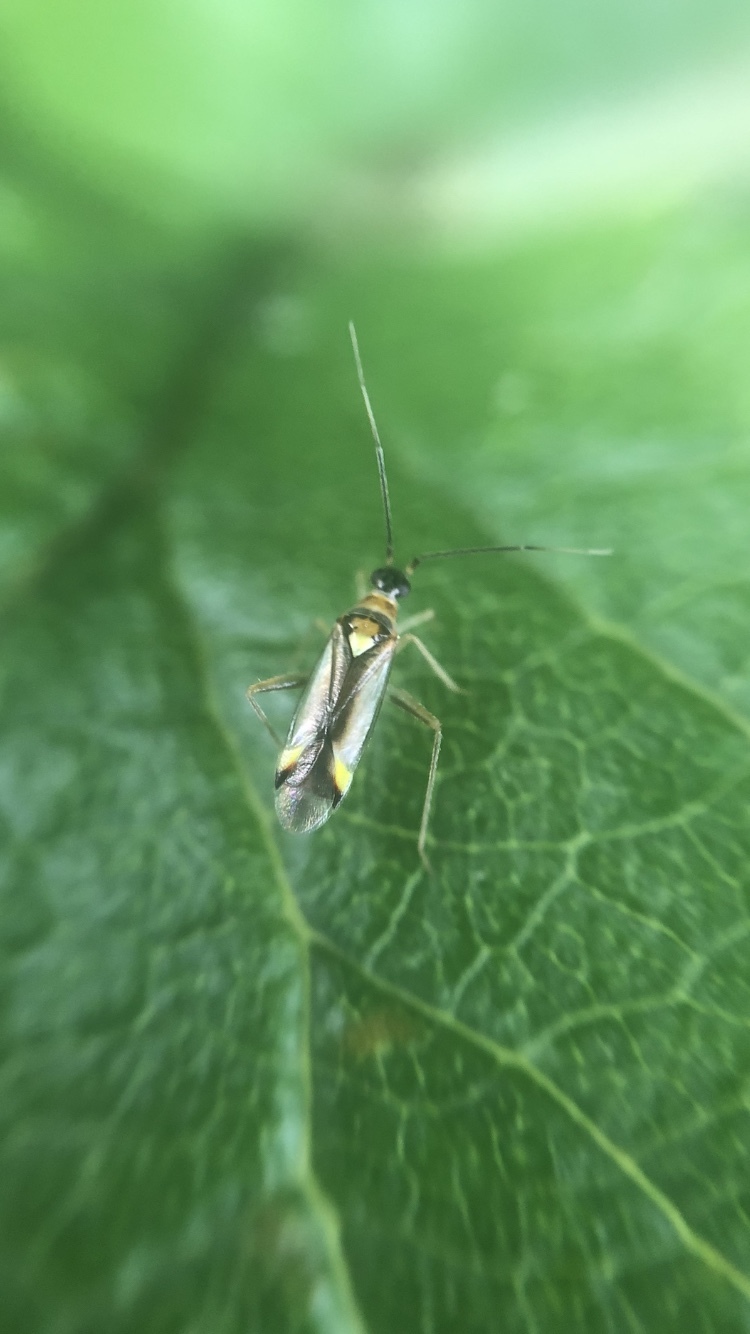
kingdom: Animalia
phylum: Arthropoda
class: Insecta
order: Hemiptera
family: Miridae
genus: Campyloneura
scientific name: Campyloneura virgula
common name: Predatory bug
